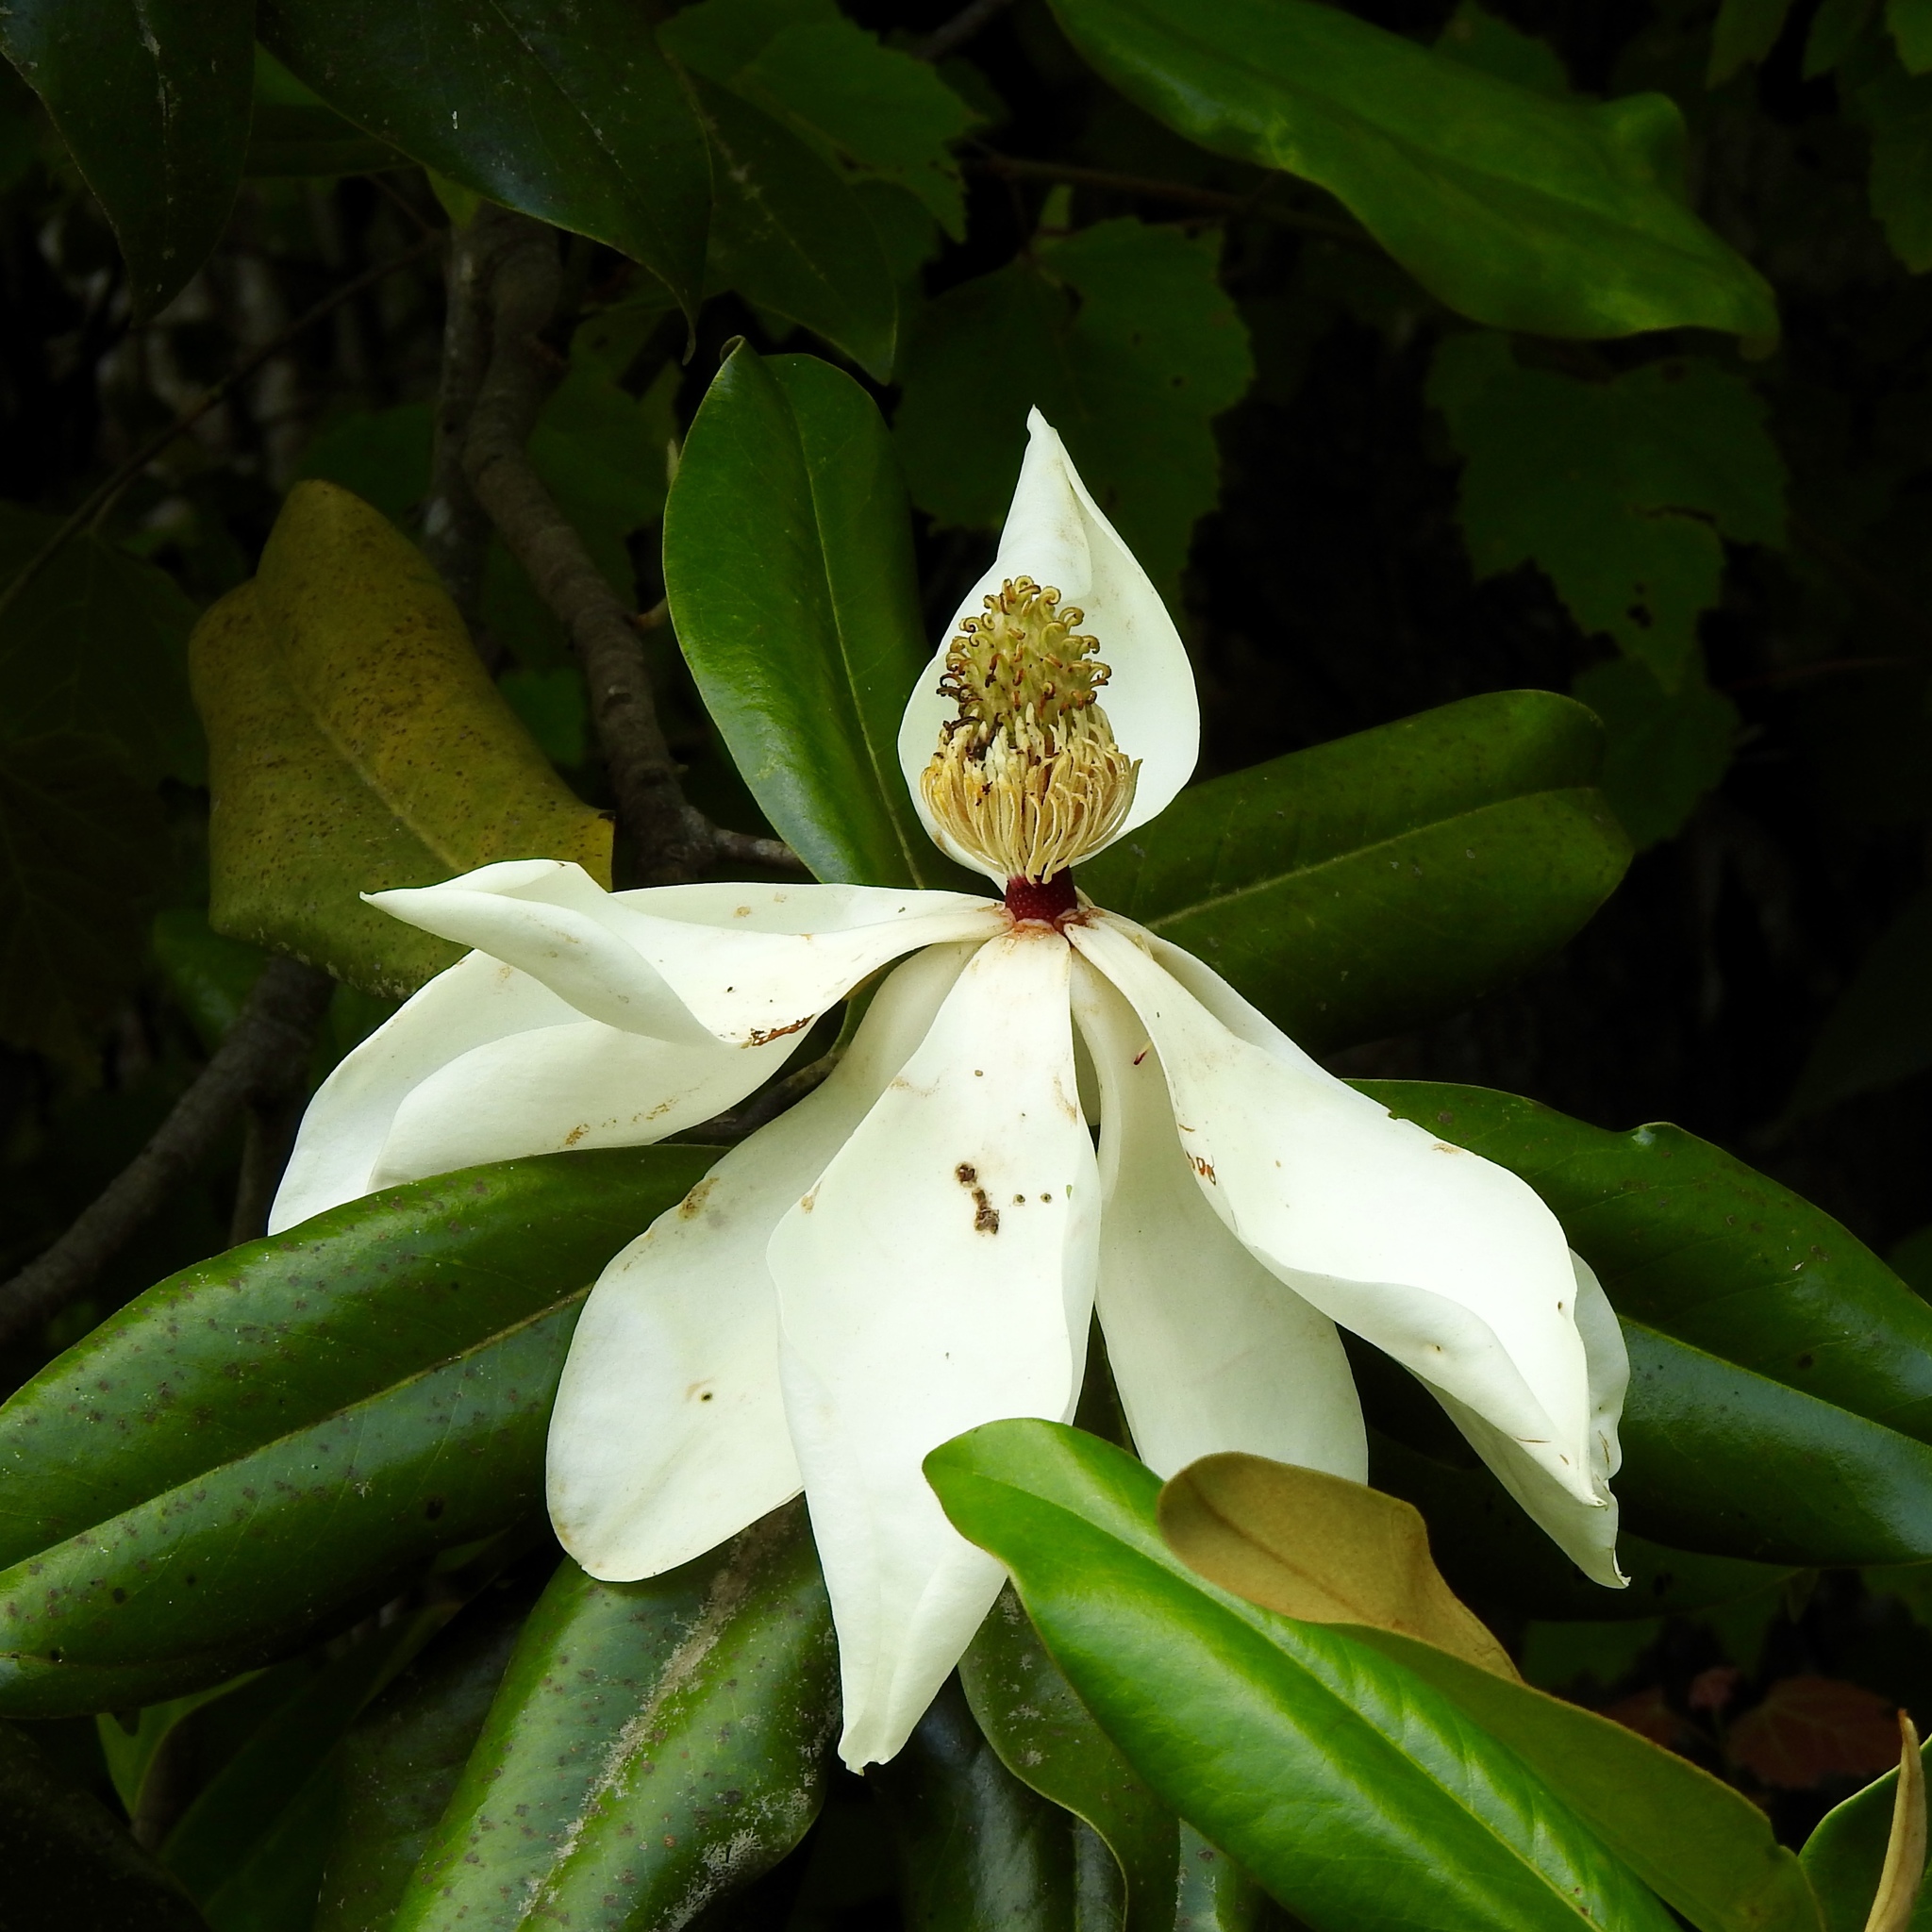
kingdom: Plantae
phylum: Tracheophyta
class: Magnoliopsida
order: Magnoliales
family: Magnoliaceae
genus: Magnolia
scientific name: Magnolia grandiflora
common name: Southern magnolia
